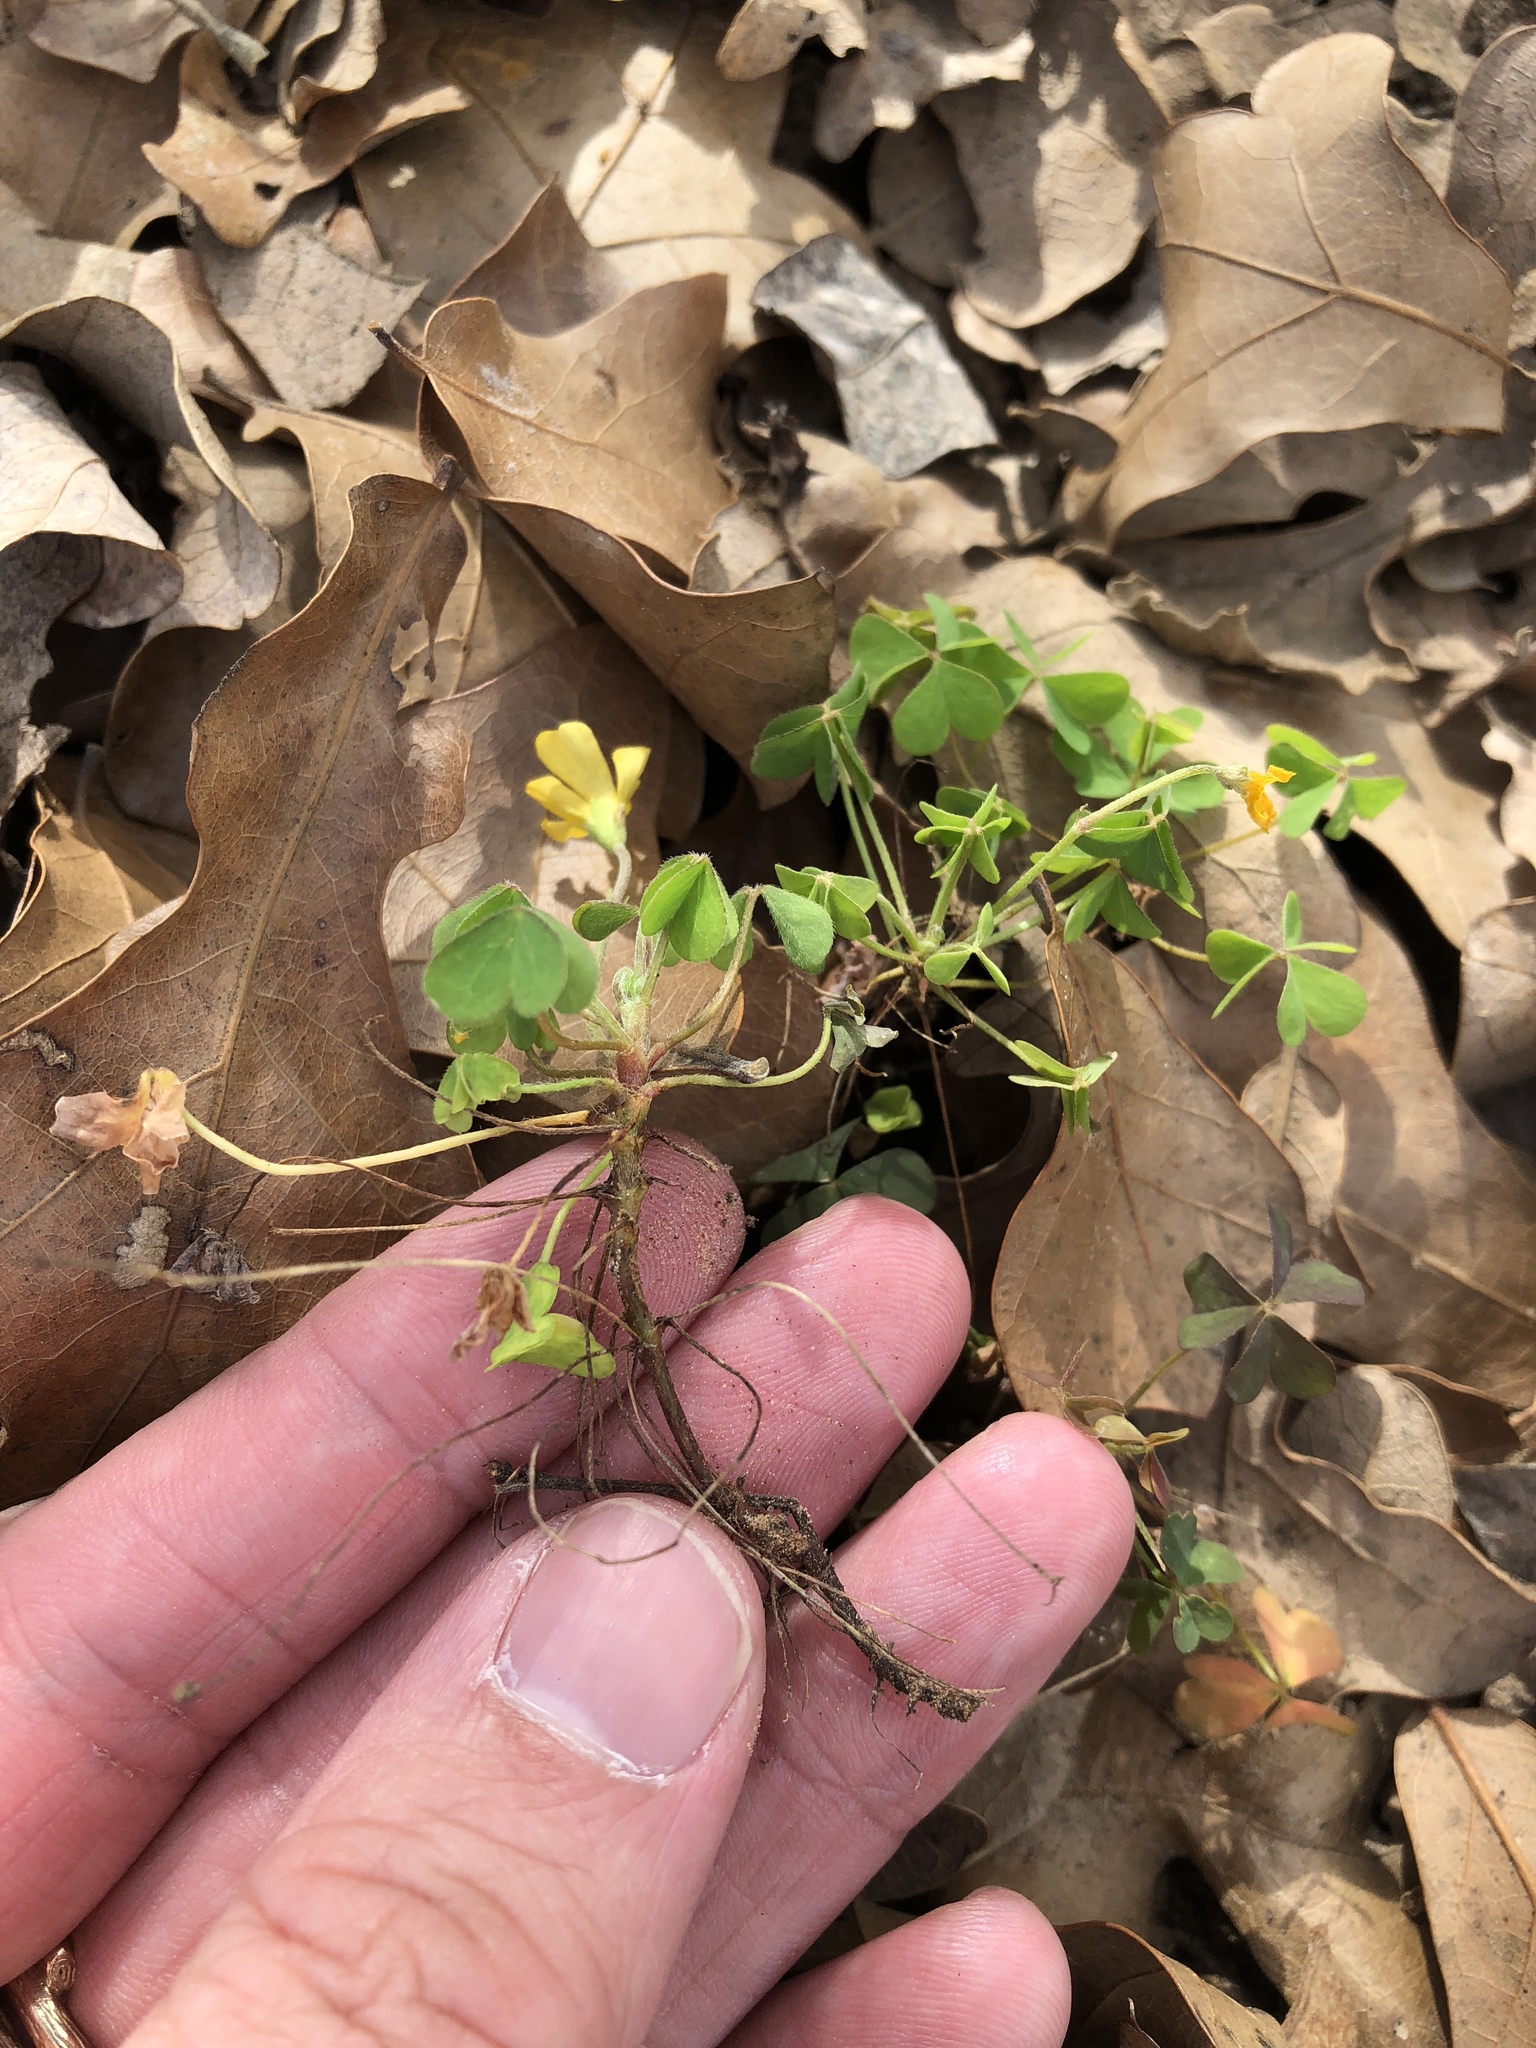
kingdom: Plantae
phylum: Tracheophyta
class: Magnoliopsida
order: Oxalidales
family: Oxalidaceae
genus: Oxalis
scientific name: Oxalis dillenii
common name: Sussex yellow-sorrel
